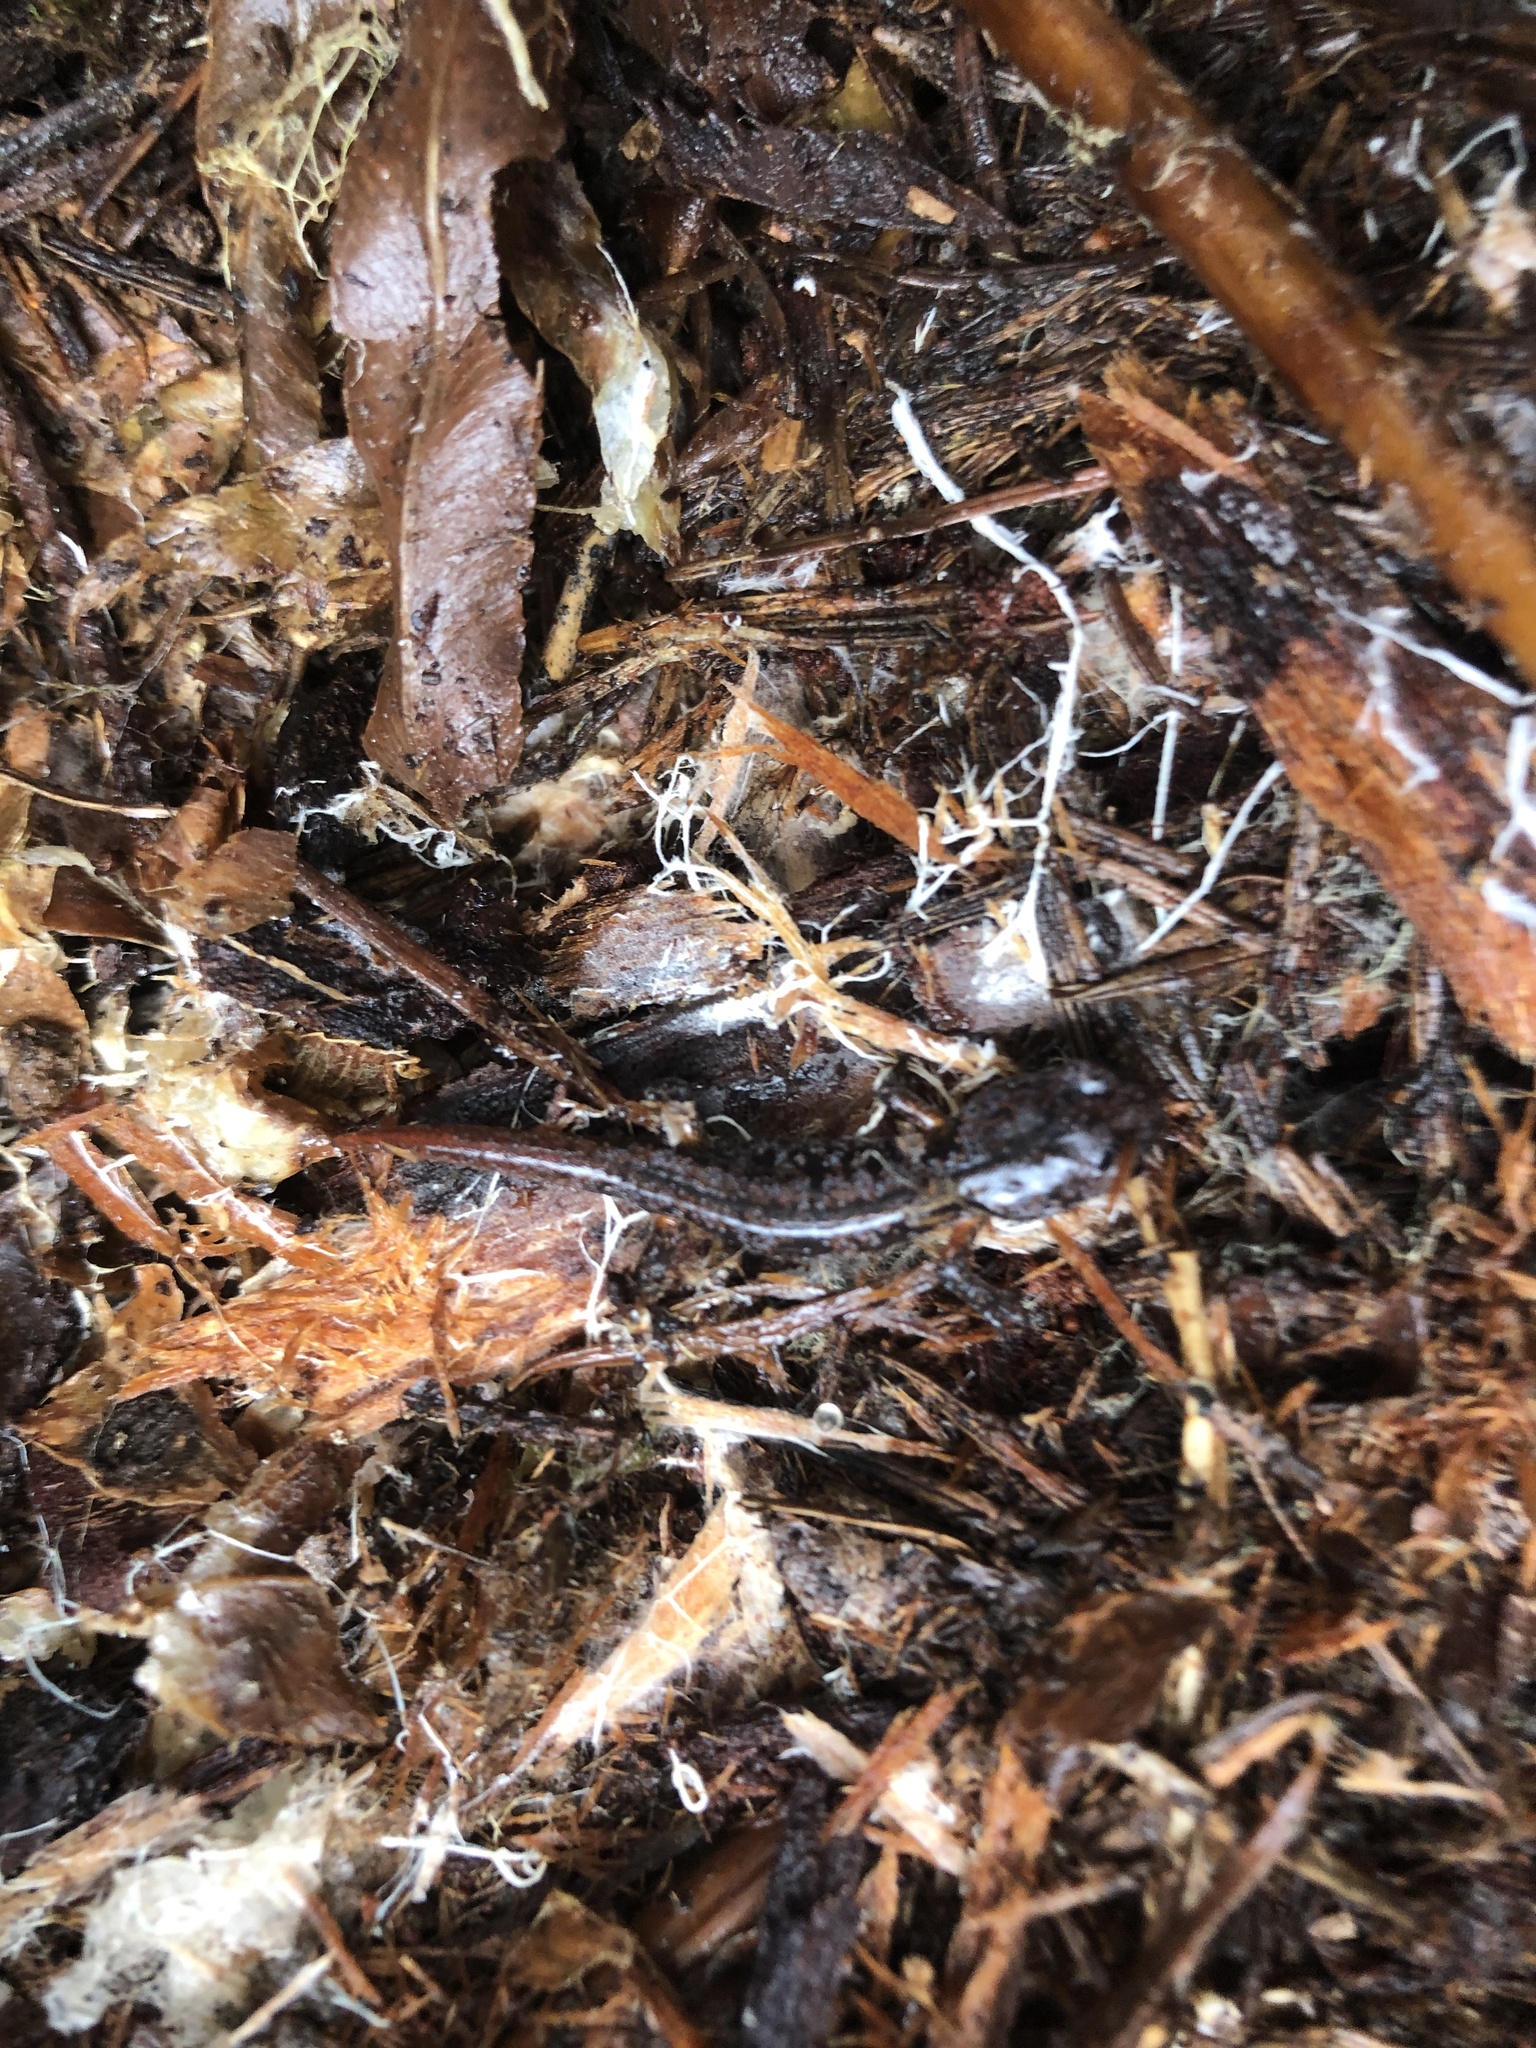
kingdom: Animalia
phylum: Chordata
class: Amphibia
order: Caudata
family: Plethodontidae
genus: Ensatina
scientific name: Ensatina eschscholtzii
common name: Ensatina
